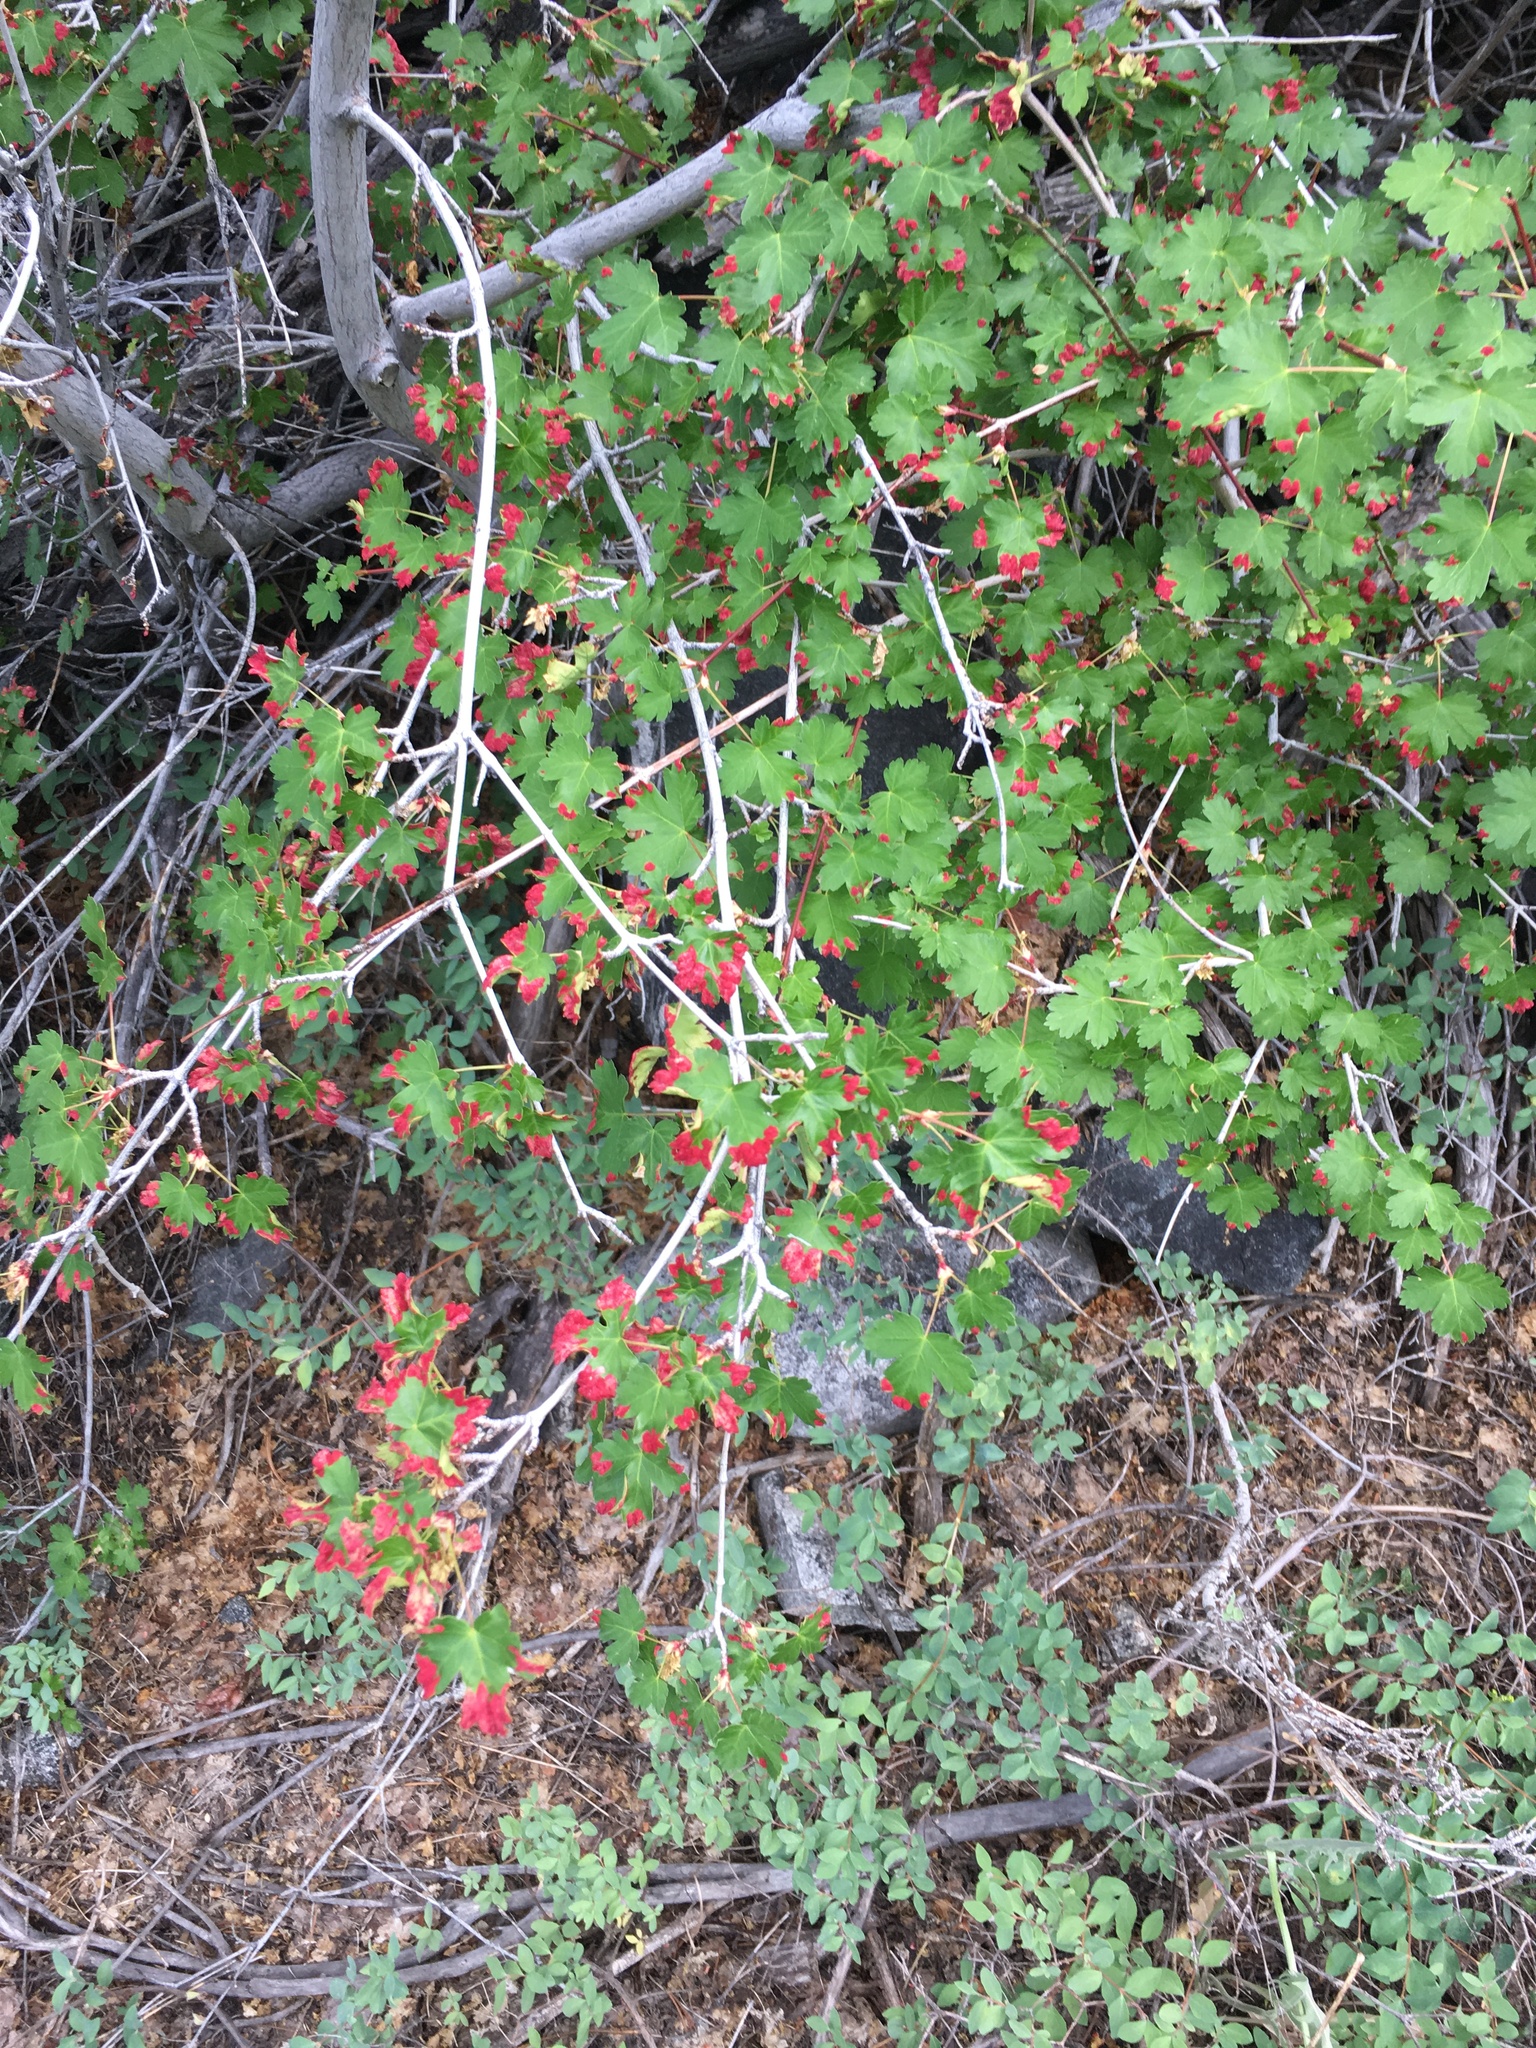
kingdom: Plantae
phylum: Tracheophyta
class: Magnoliopsida
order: Sapindales
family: Sapindaceae
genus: Acer
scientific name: Acer glabrum
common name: Rocky mountain maple
